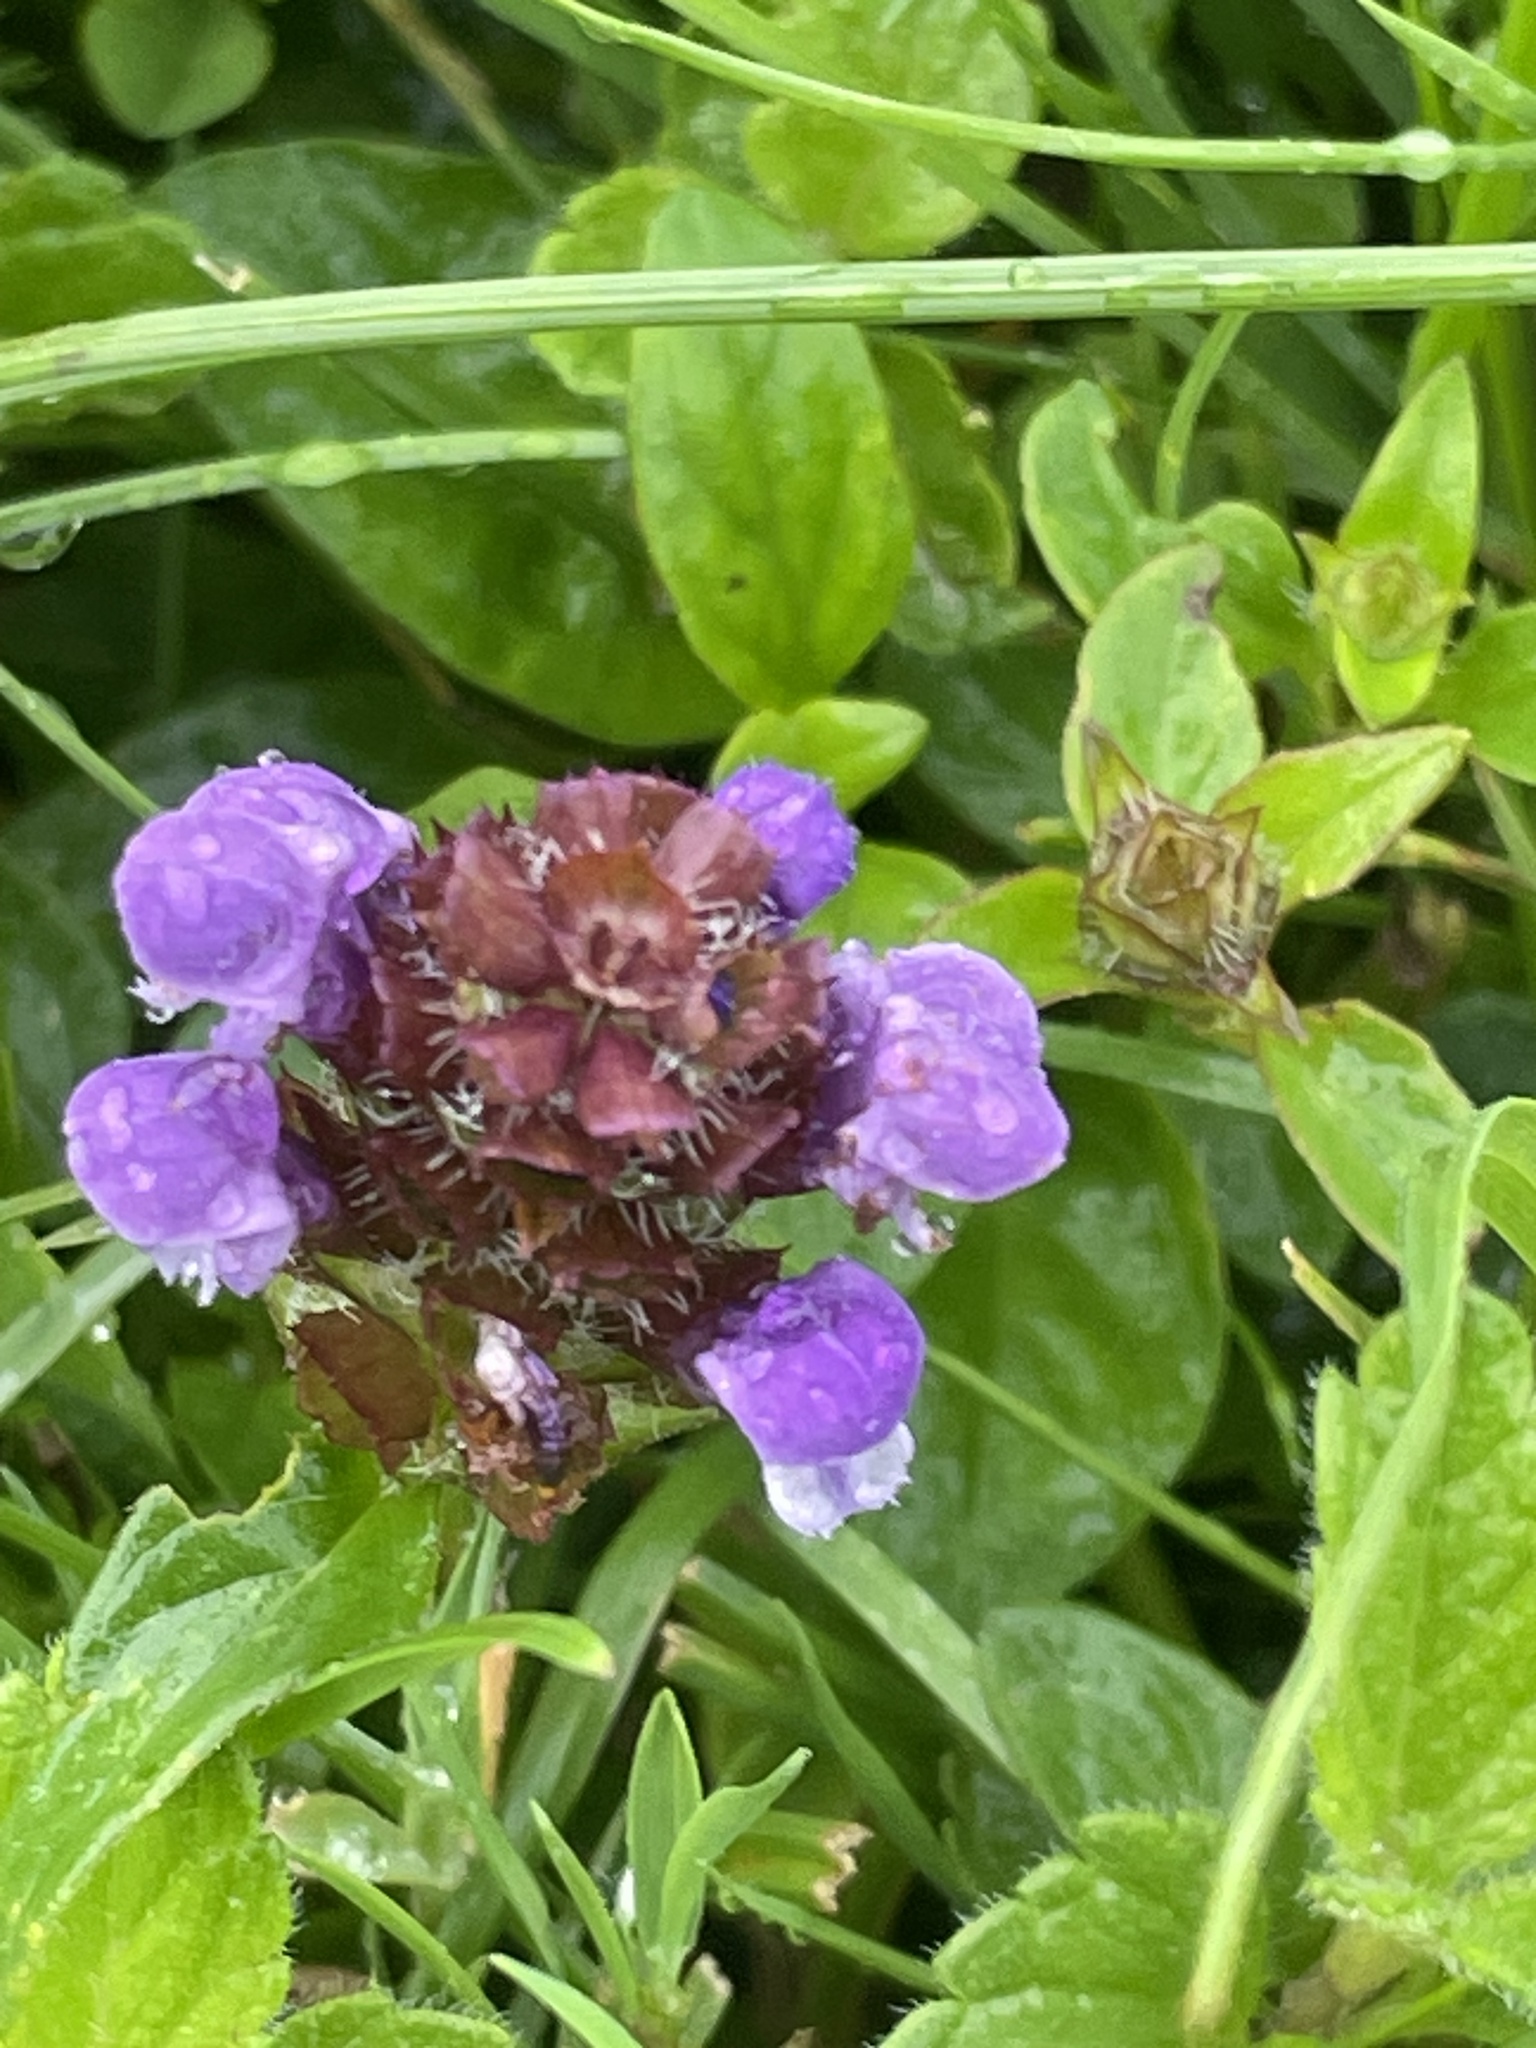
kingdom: Plantae
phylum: Tracheophyta
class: Magnoliopsida
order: Lamiales
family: Lamiaceae
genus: Prunella
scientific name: Prunella vulgaris
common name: Heal-all
